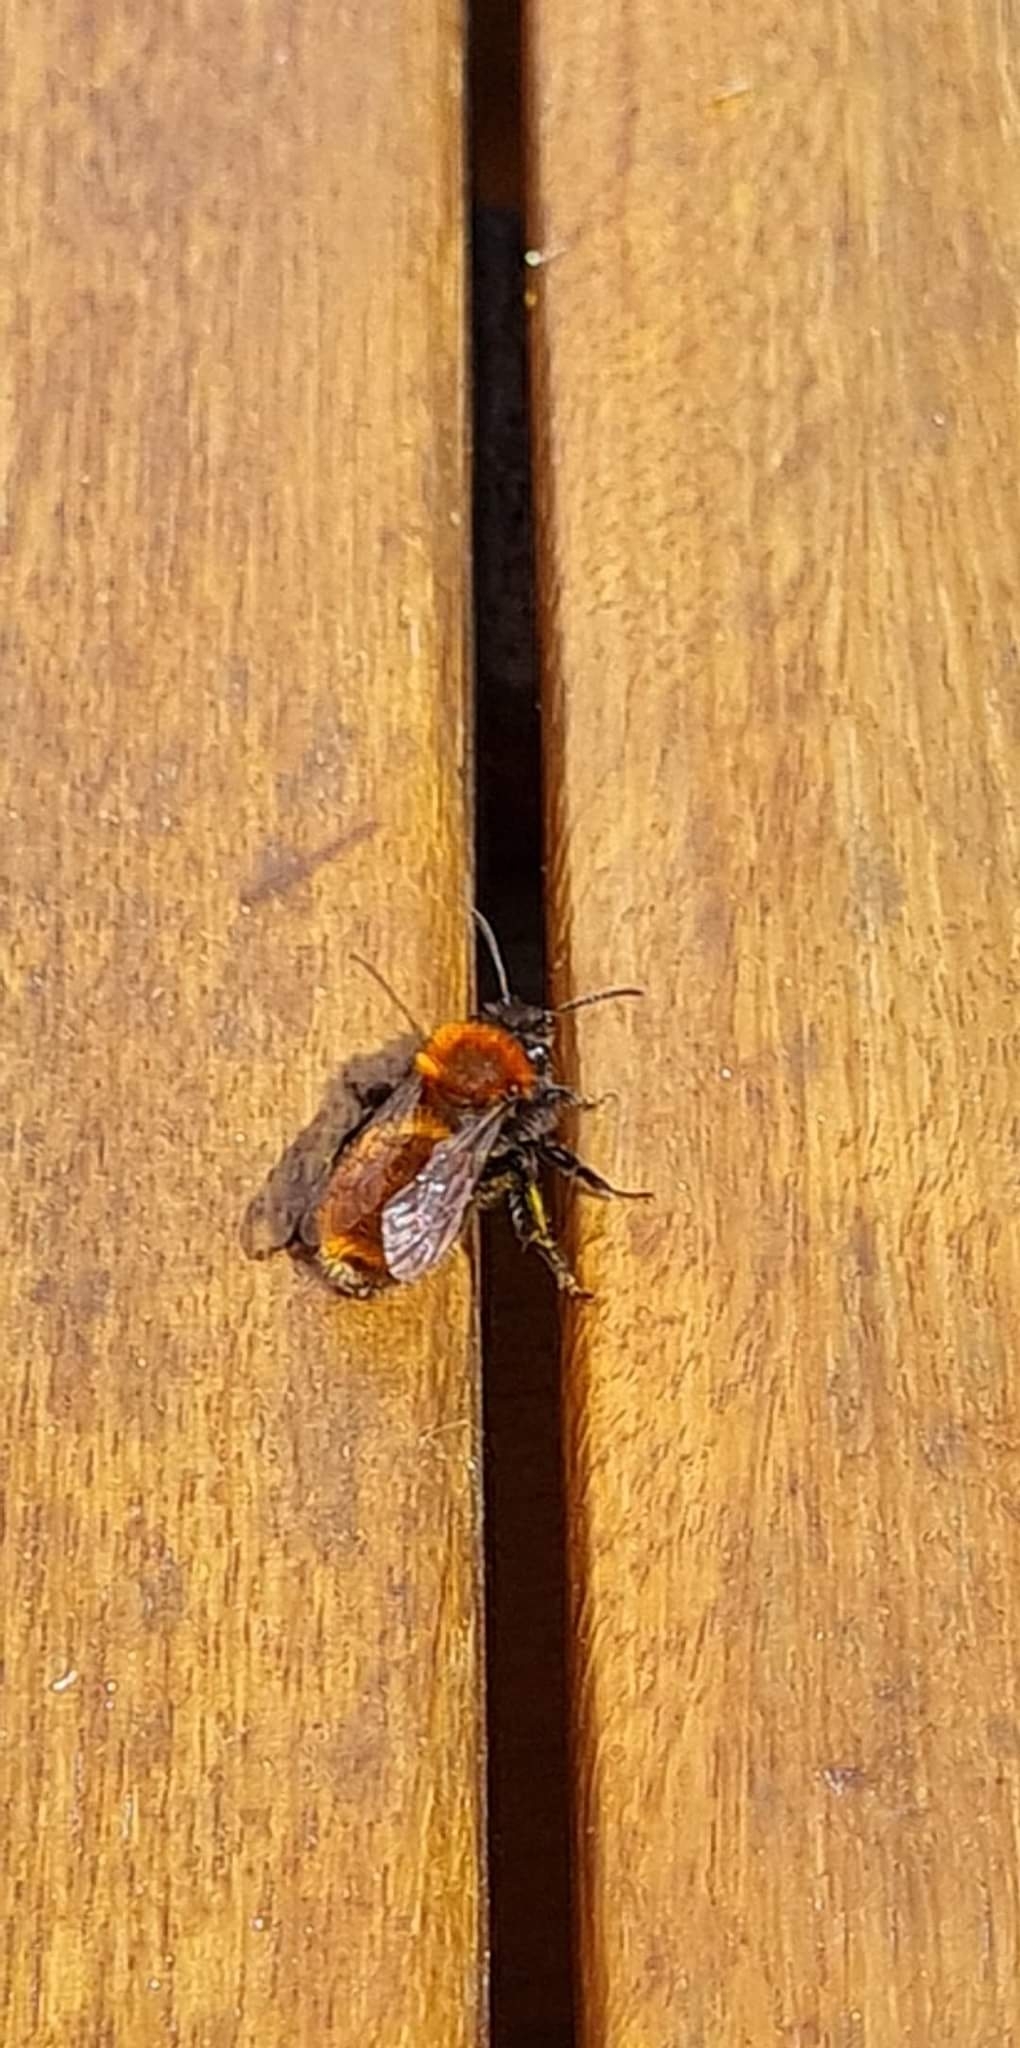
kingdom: Animalia
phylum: Arthropoda
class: Insecta
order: Hymenoptera
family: Andrenidae
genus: Andrena
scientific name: Andrena fulva
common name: Tawny mining bee
